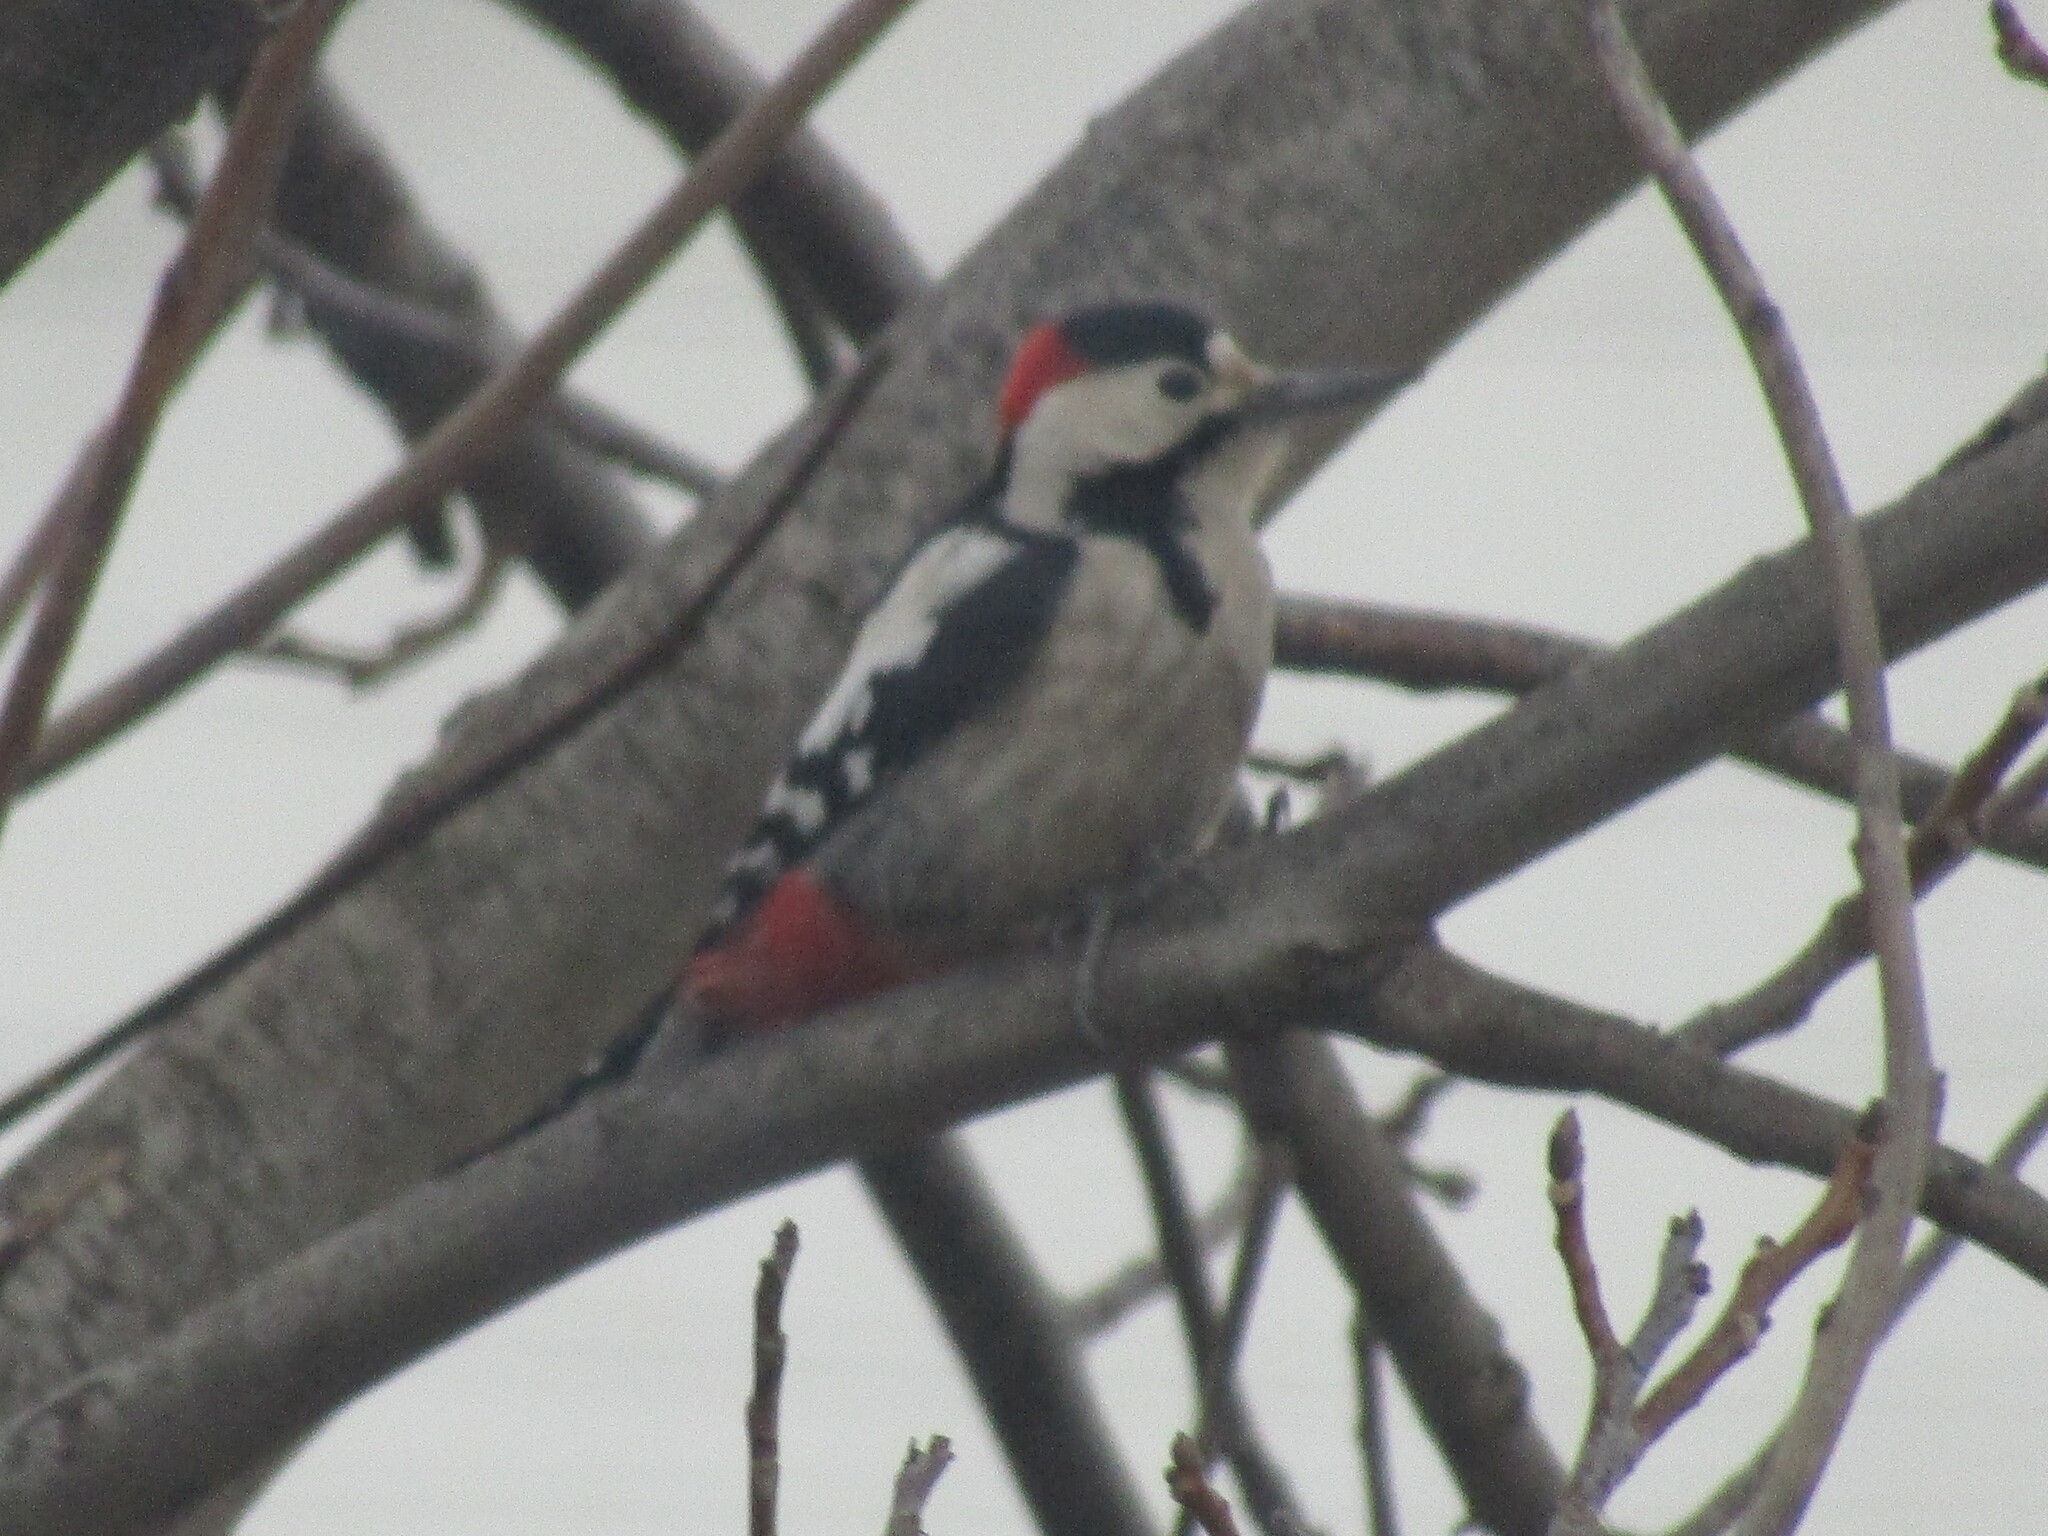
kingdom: Animalia
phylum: Chordata
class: Aves
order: Piciformes
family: Picidae
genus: Dendrocopos
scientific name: Dendrocopos syriacus
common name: Syrian woodpecker
